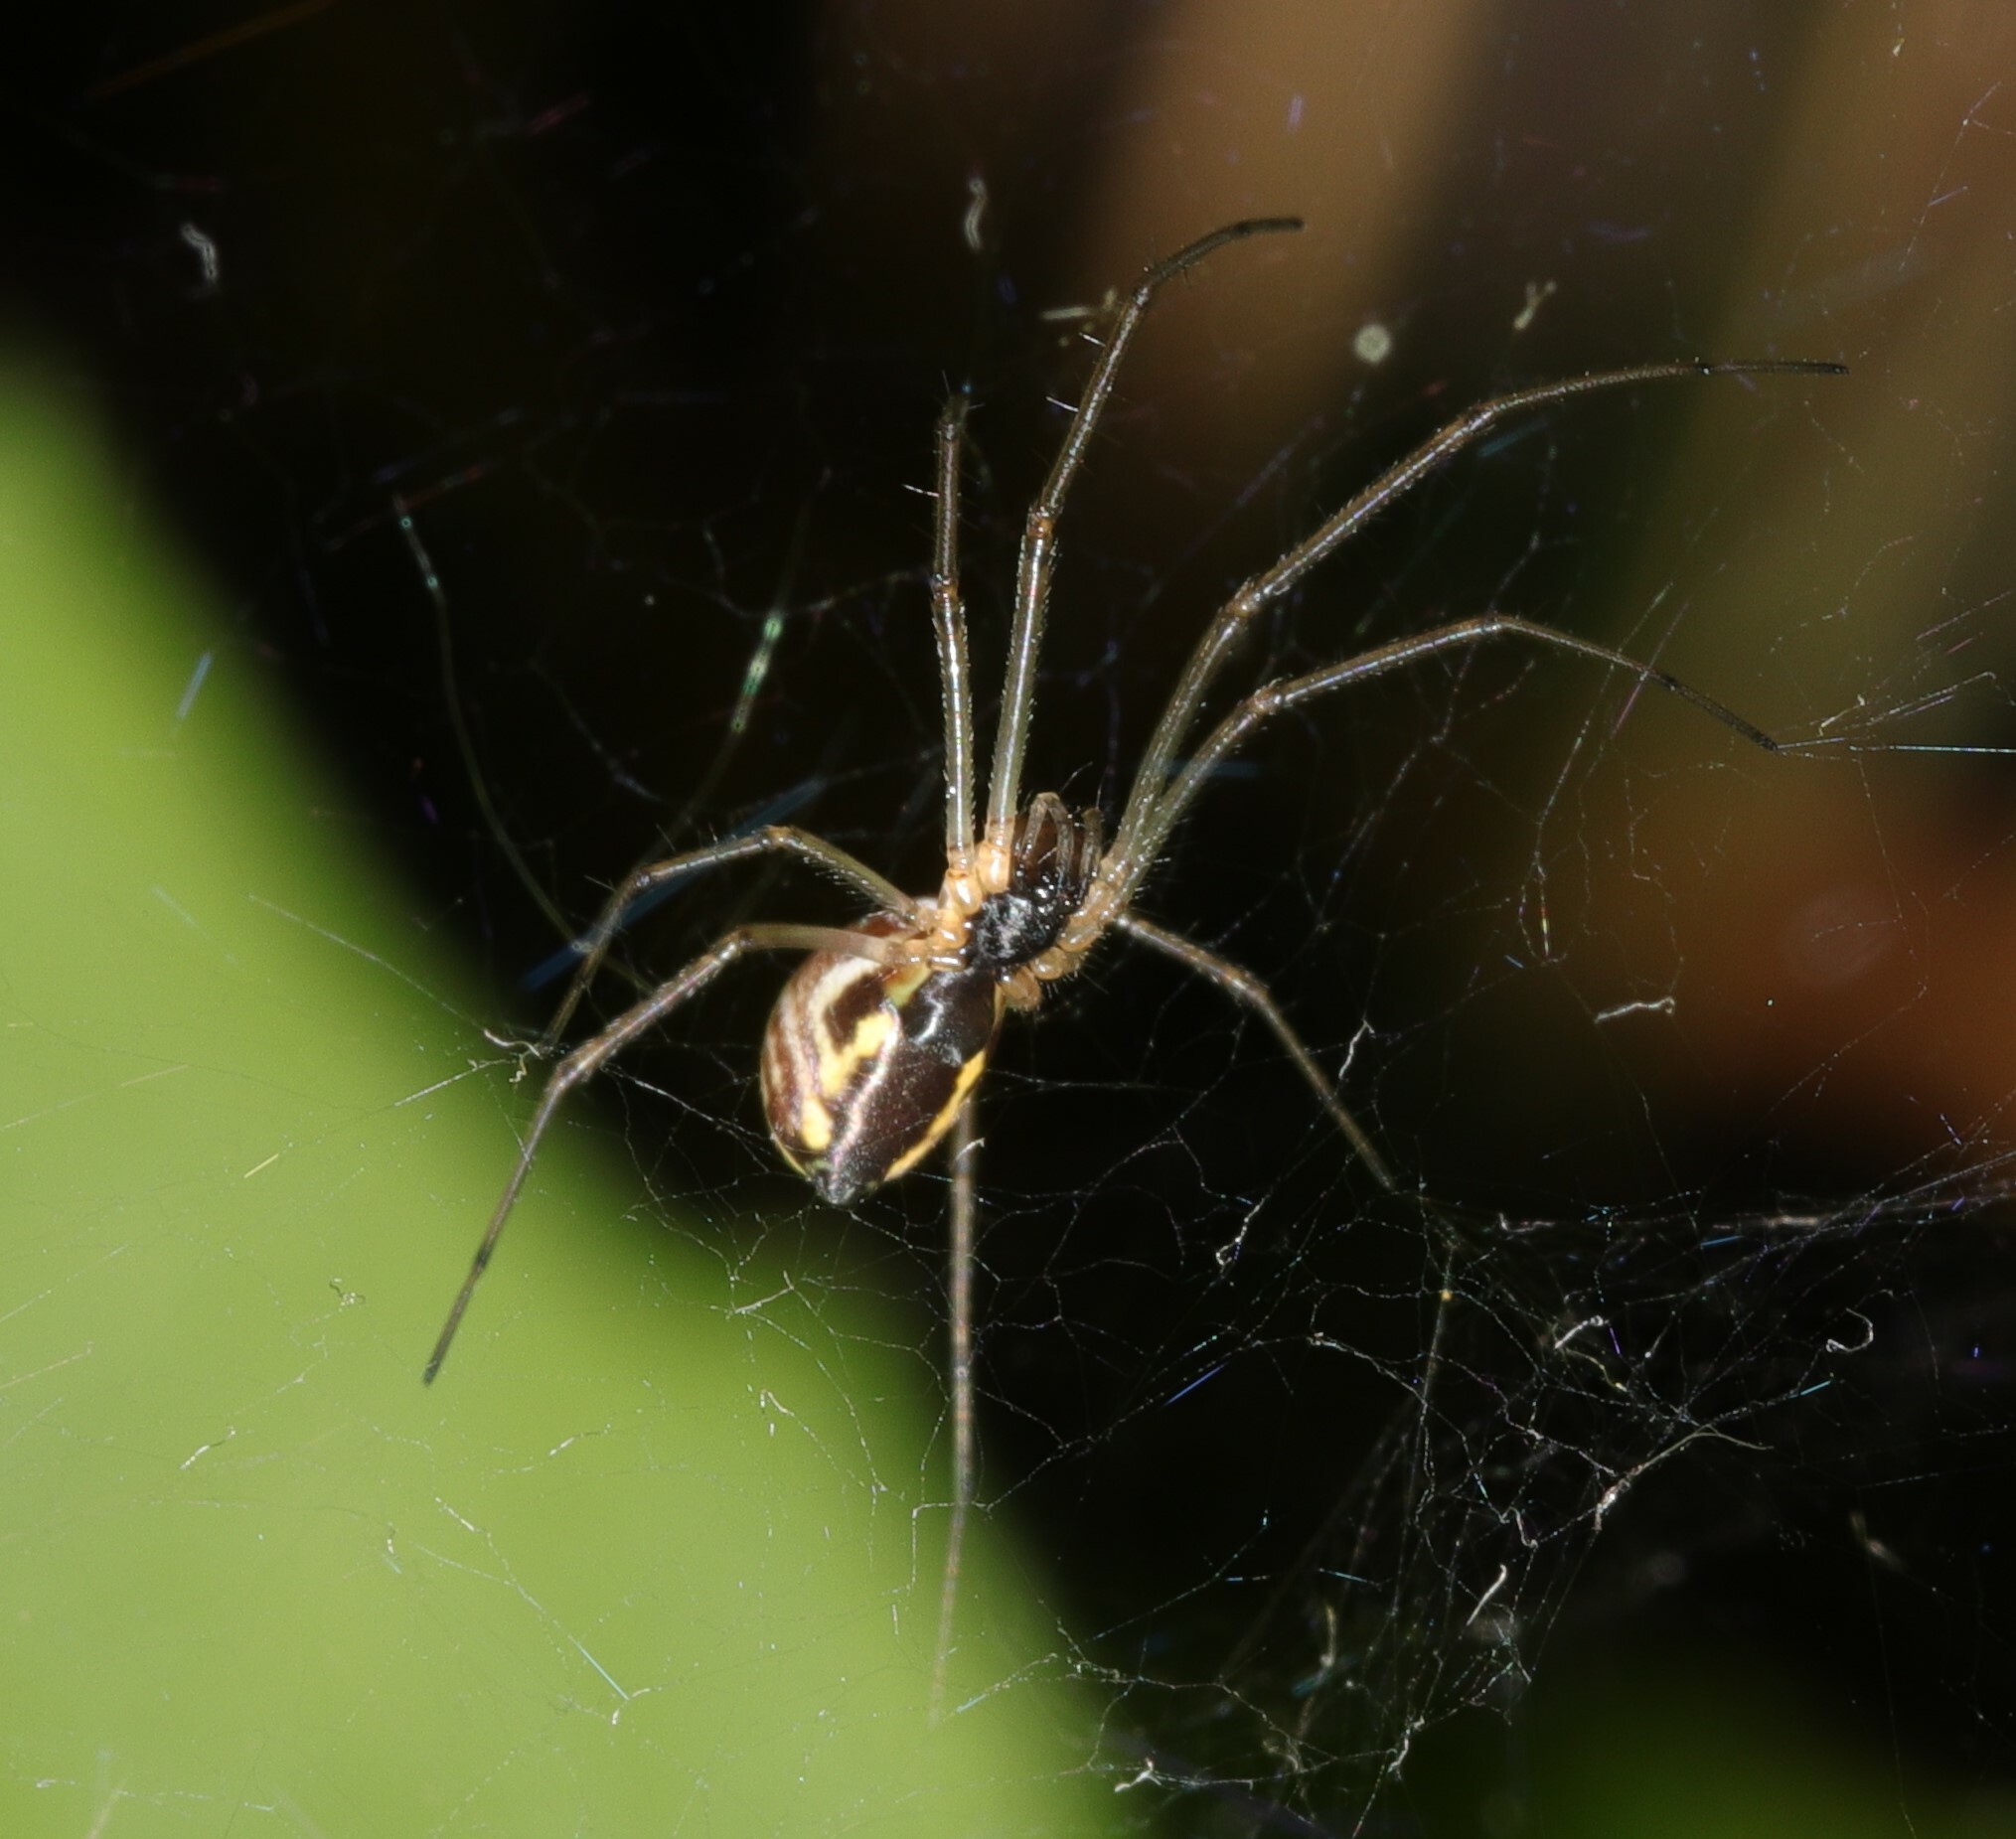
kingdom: Animalia
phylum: Arthropoda
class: Arachnida
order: Araneae
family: Linyphiidae
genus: Neriene
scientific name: Neriene radiata
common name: Filmy dome spider
